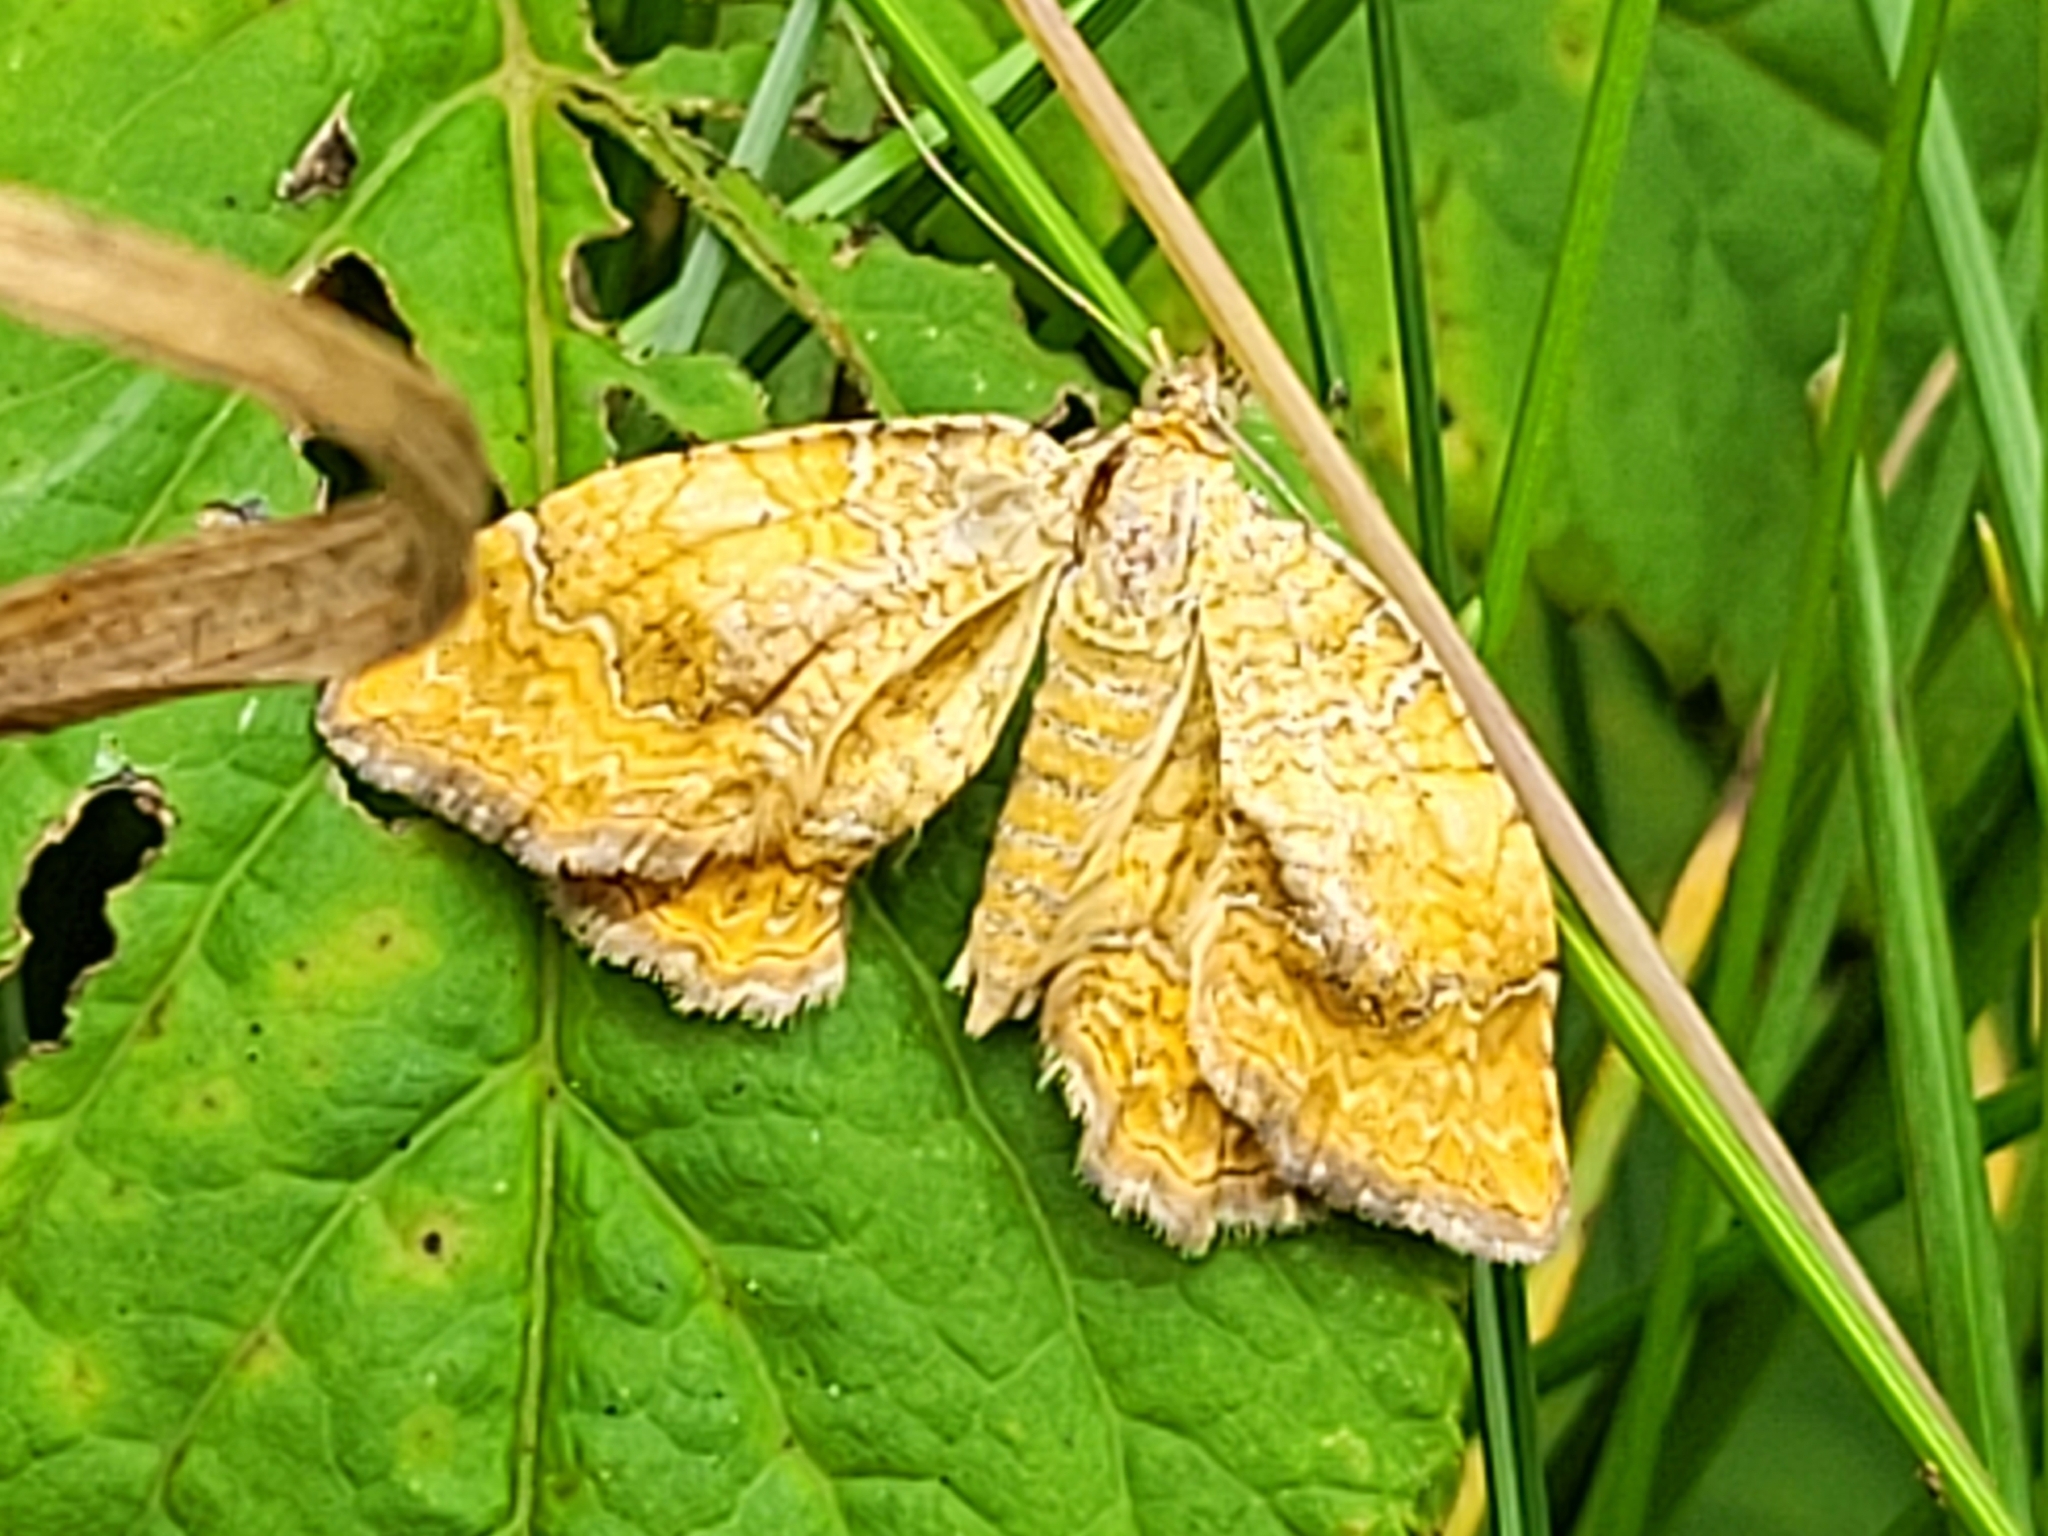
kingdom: Animalia
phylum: Arthropoda
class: Insecta
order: Lepidoptera
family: Geometridae
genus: Camptogramma
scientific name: Camptogramma bilineata
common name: Yellow shell
